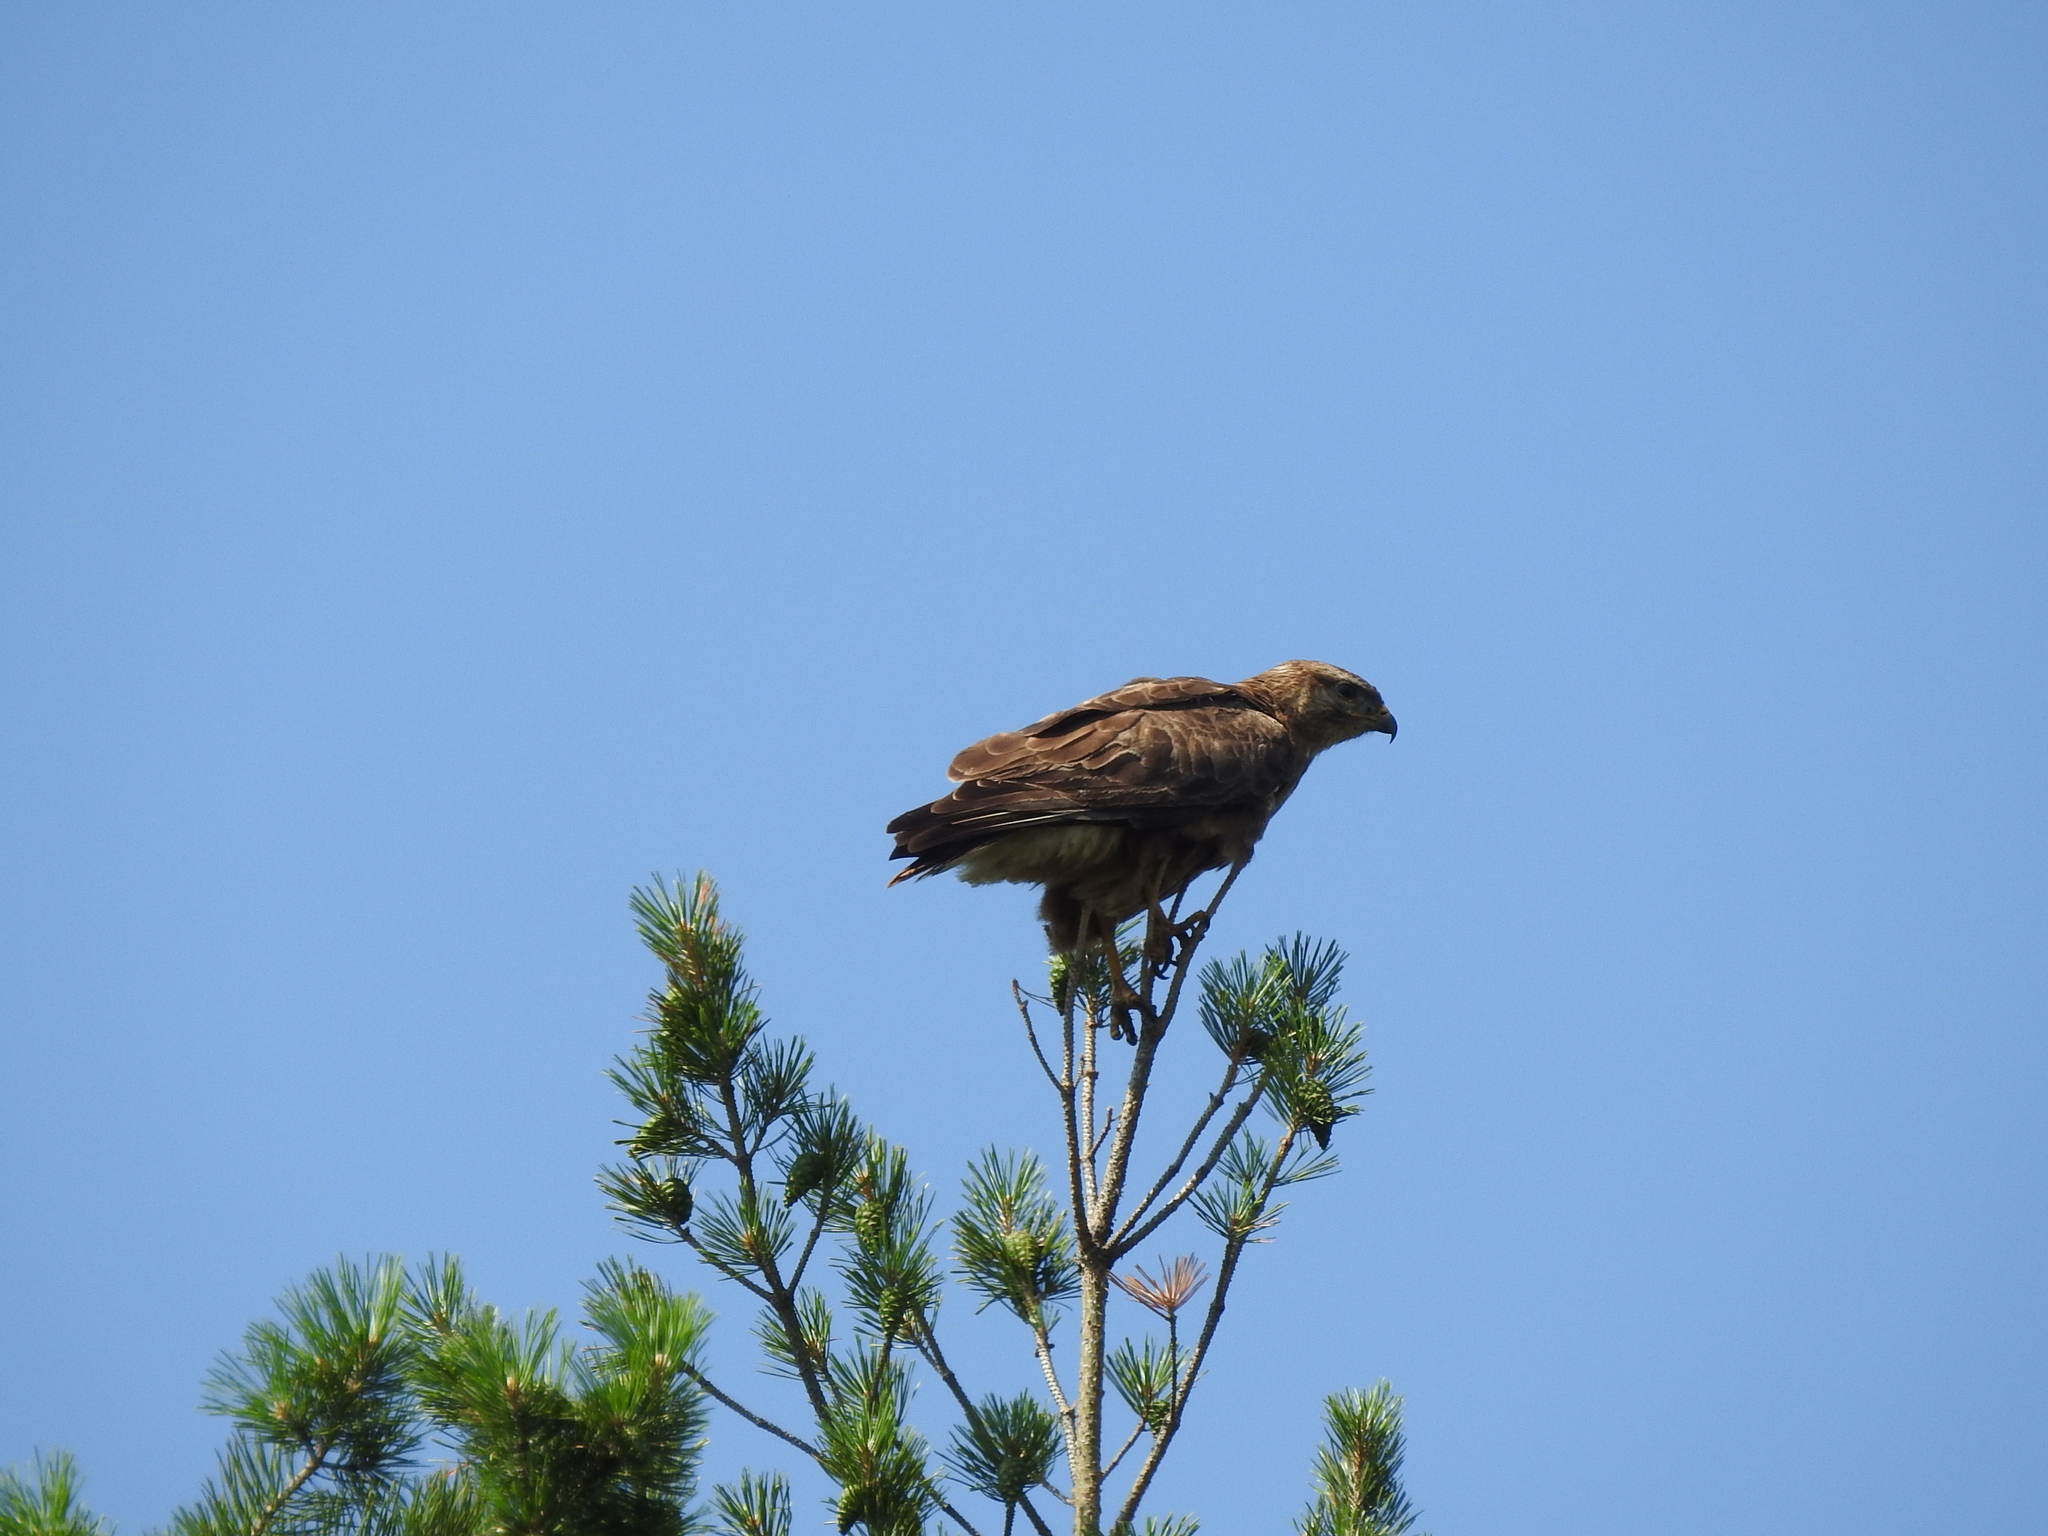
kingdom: Animalia
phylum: Chordata
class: Aves
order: Accipitriformes
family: Accipitridae
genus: Buteo
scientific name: Buteo buteo
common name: Common buzzard
